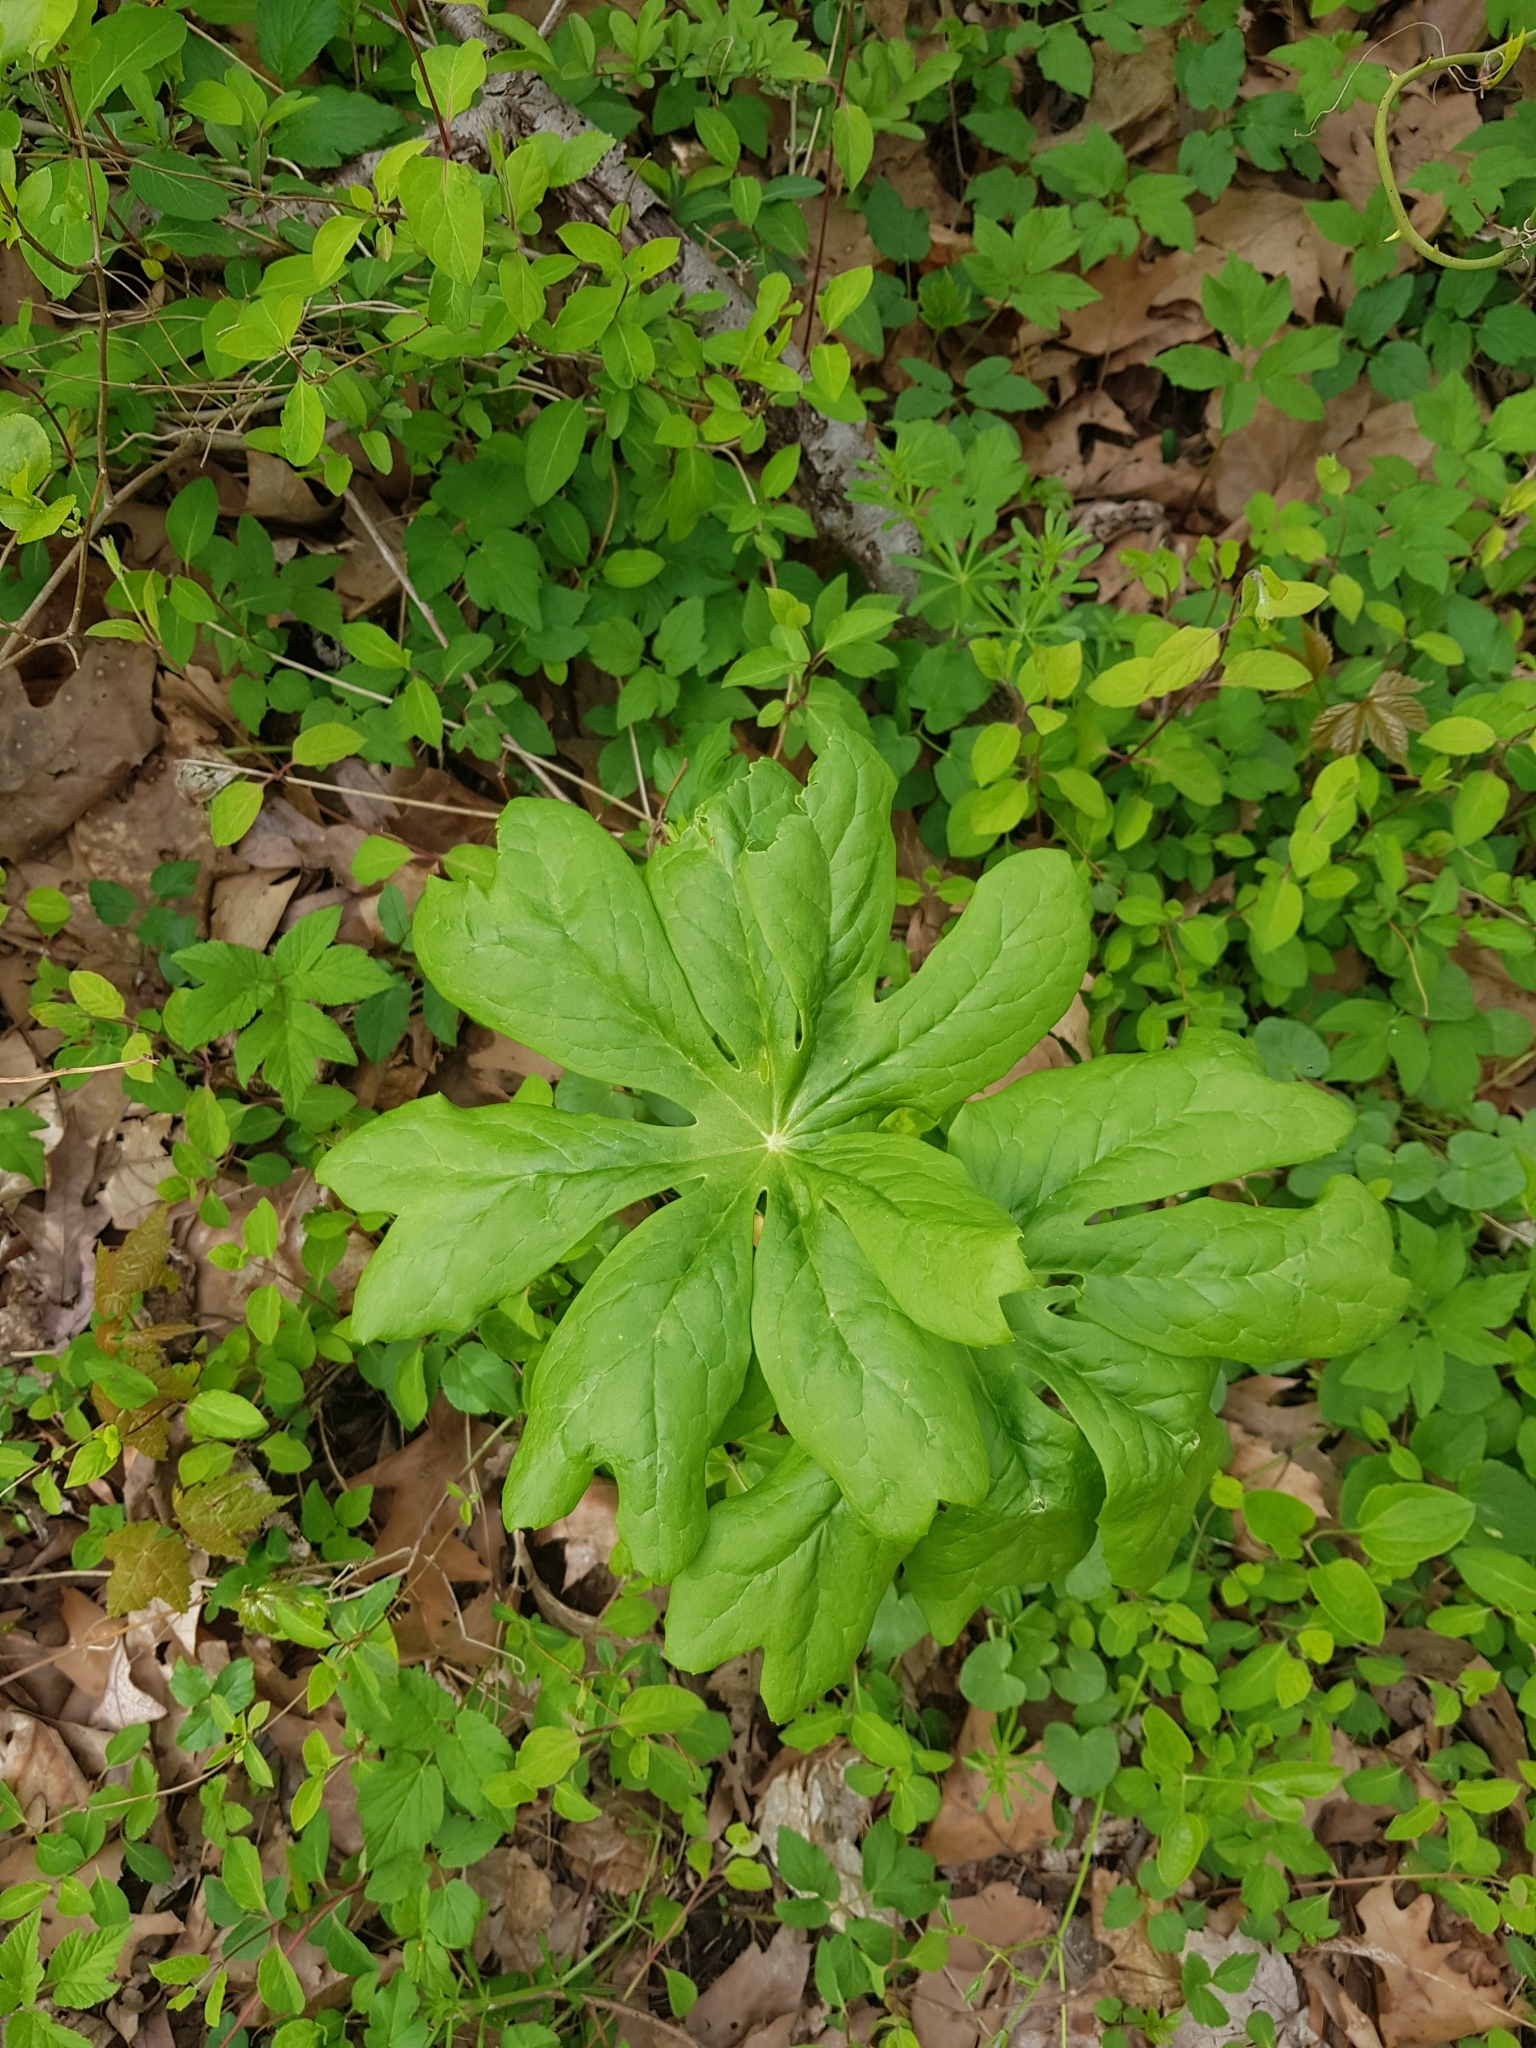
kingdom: Plantae
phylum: Tracheophyta
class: Magnoliopsida
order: Ranunculales
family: Berberidaceae
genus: Podophyllum
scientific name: Podophyllum peltatum
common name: Wild mandrake
